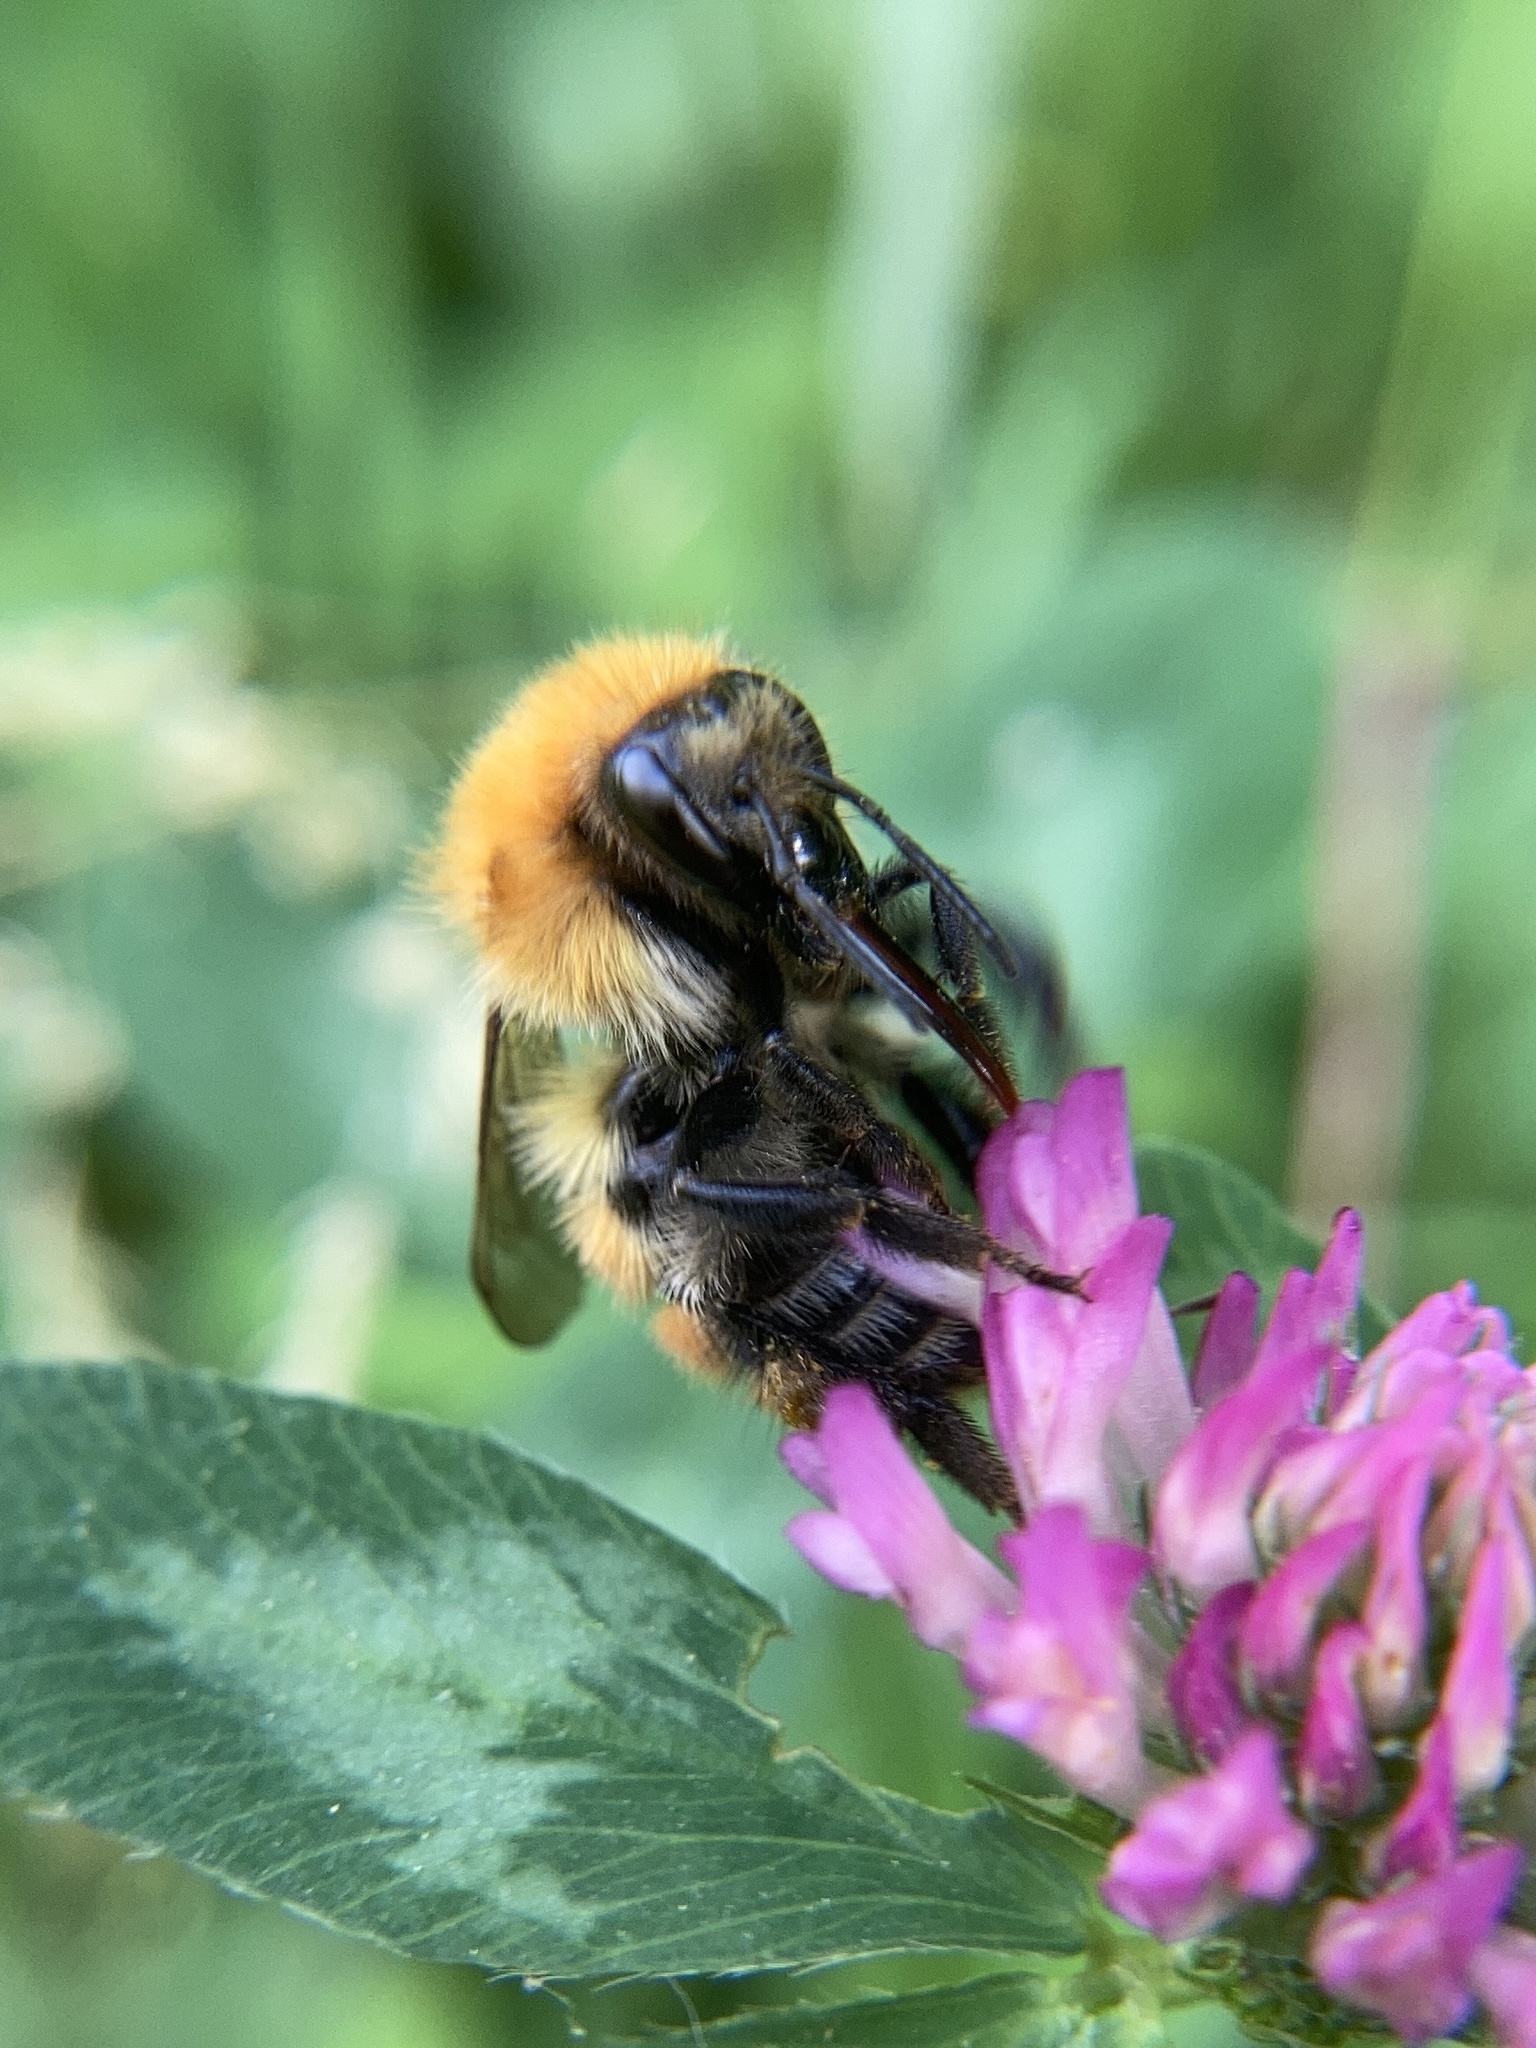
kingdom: Animalia
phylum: Arthropoda
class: Insecta
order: Hymenoptera
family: Apidae
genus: Bombus
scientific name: Bombus pascuorum
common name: Common carder bee
